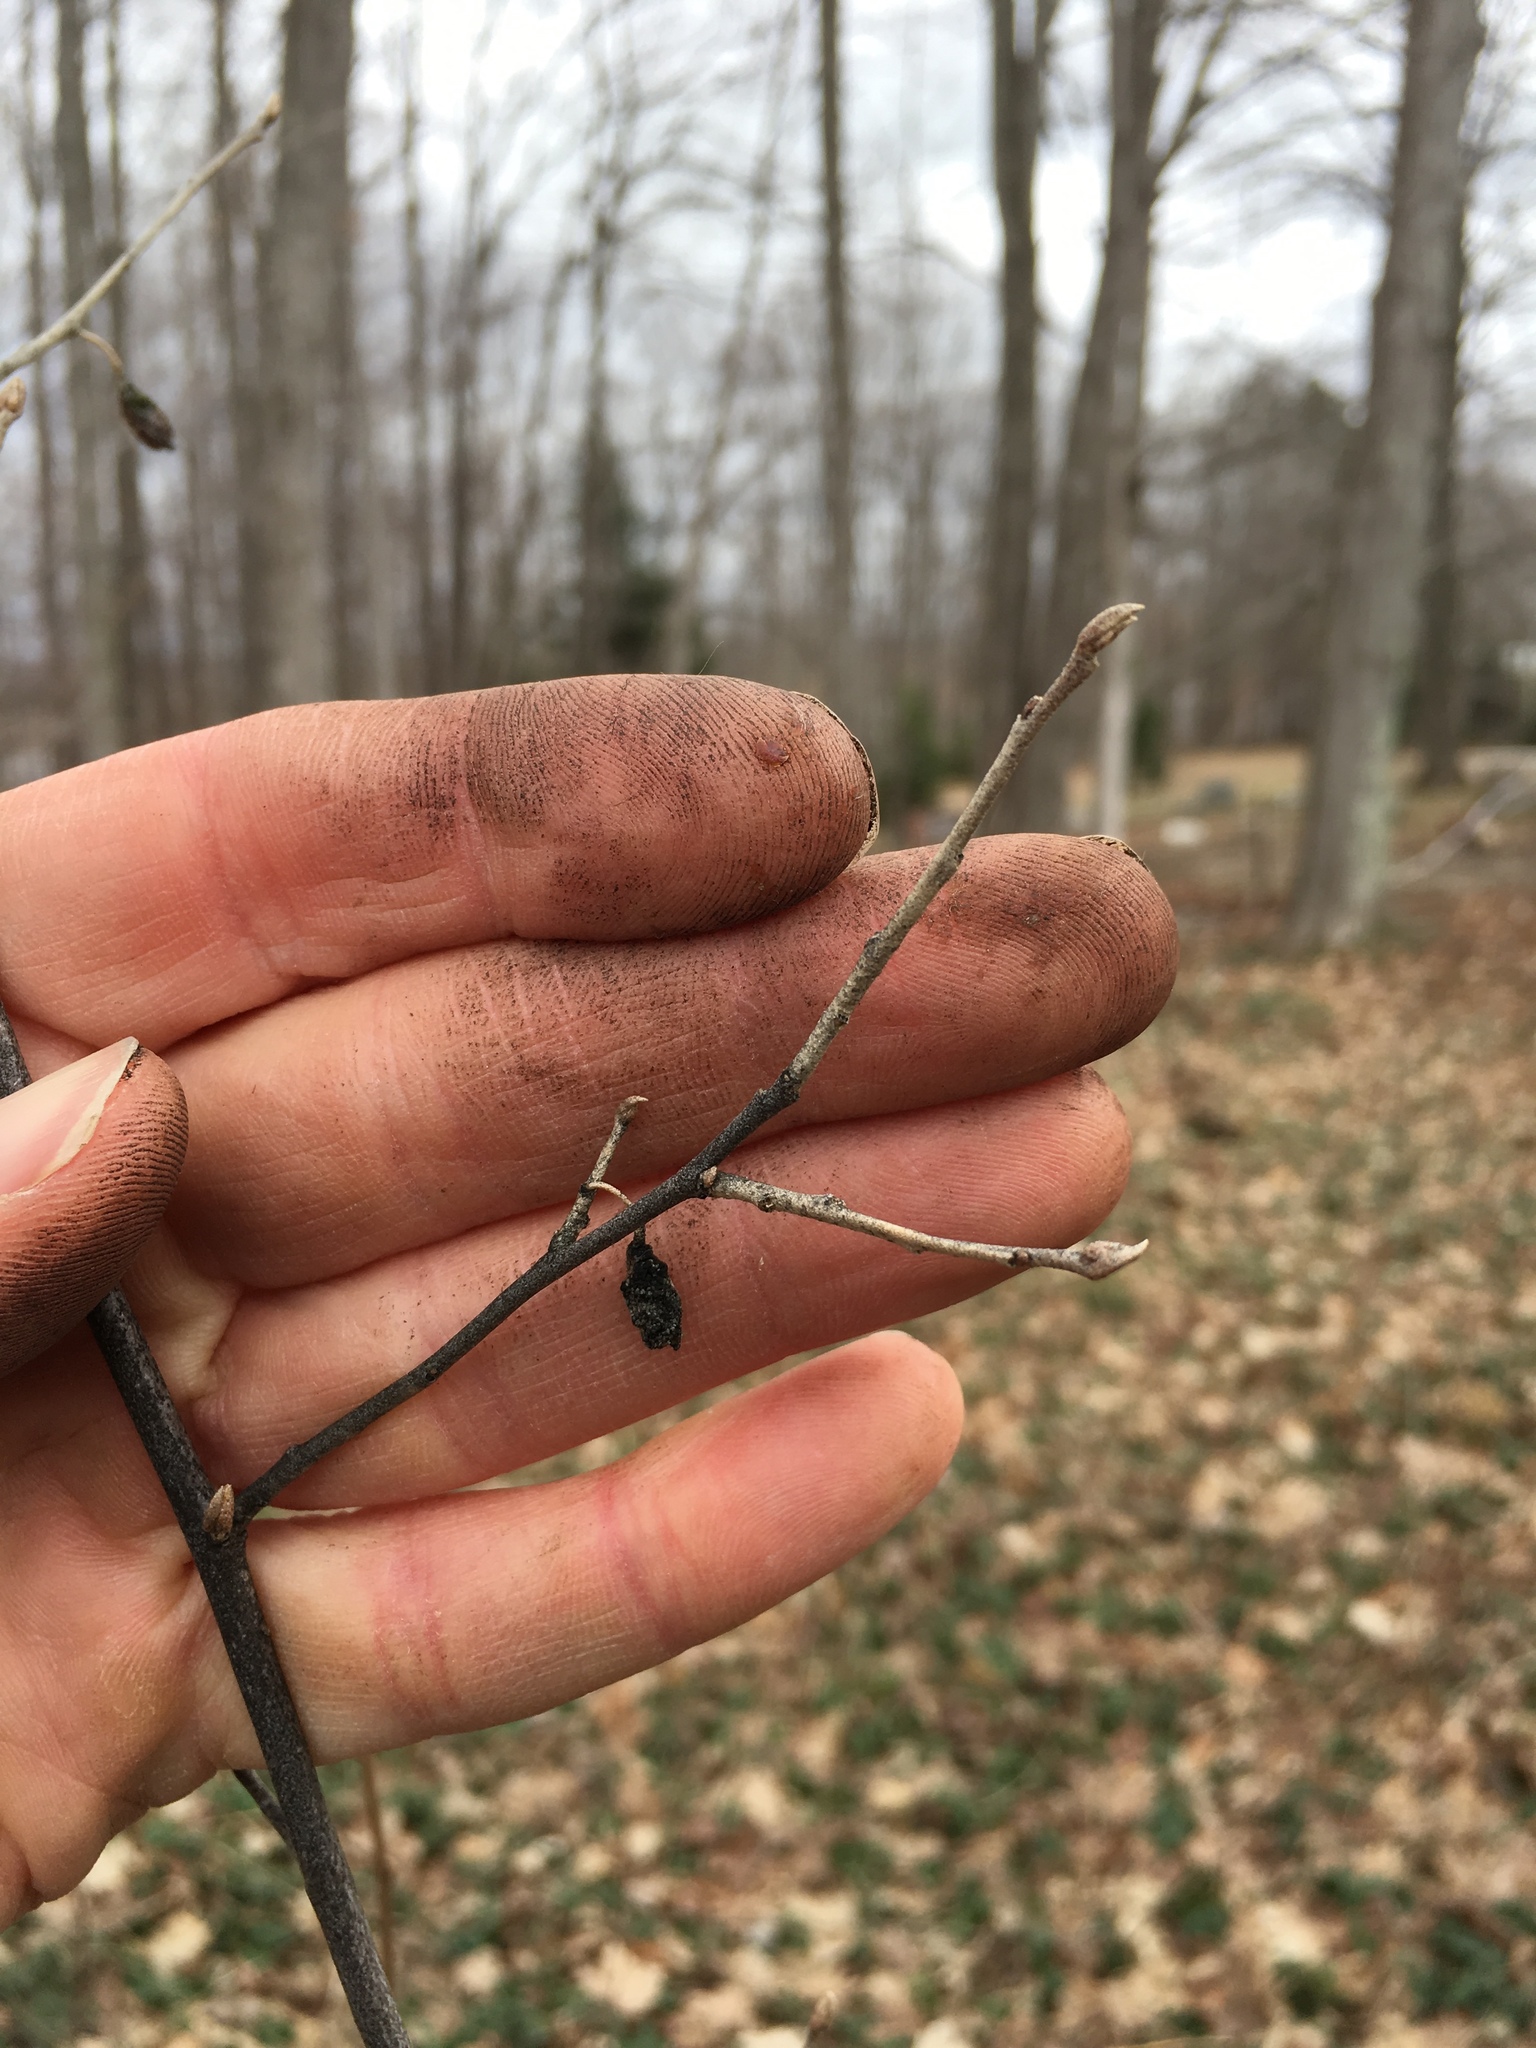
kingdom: Plantae
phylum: Tracheophyta
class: Magnoliopsida
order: Rosales
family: Elaeagnaceae
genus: Elaeagnus
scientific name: Elaeagnus umbellata
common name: Autumn olive
